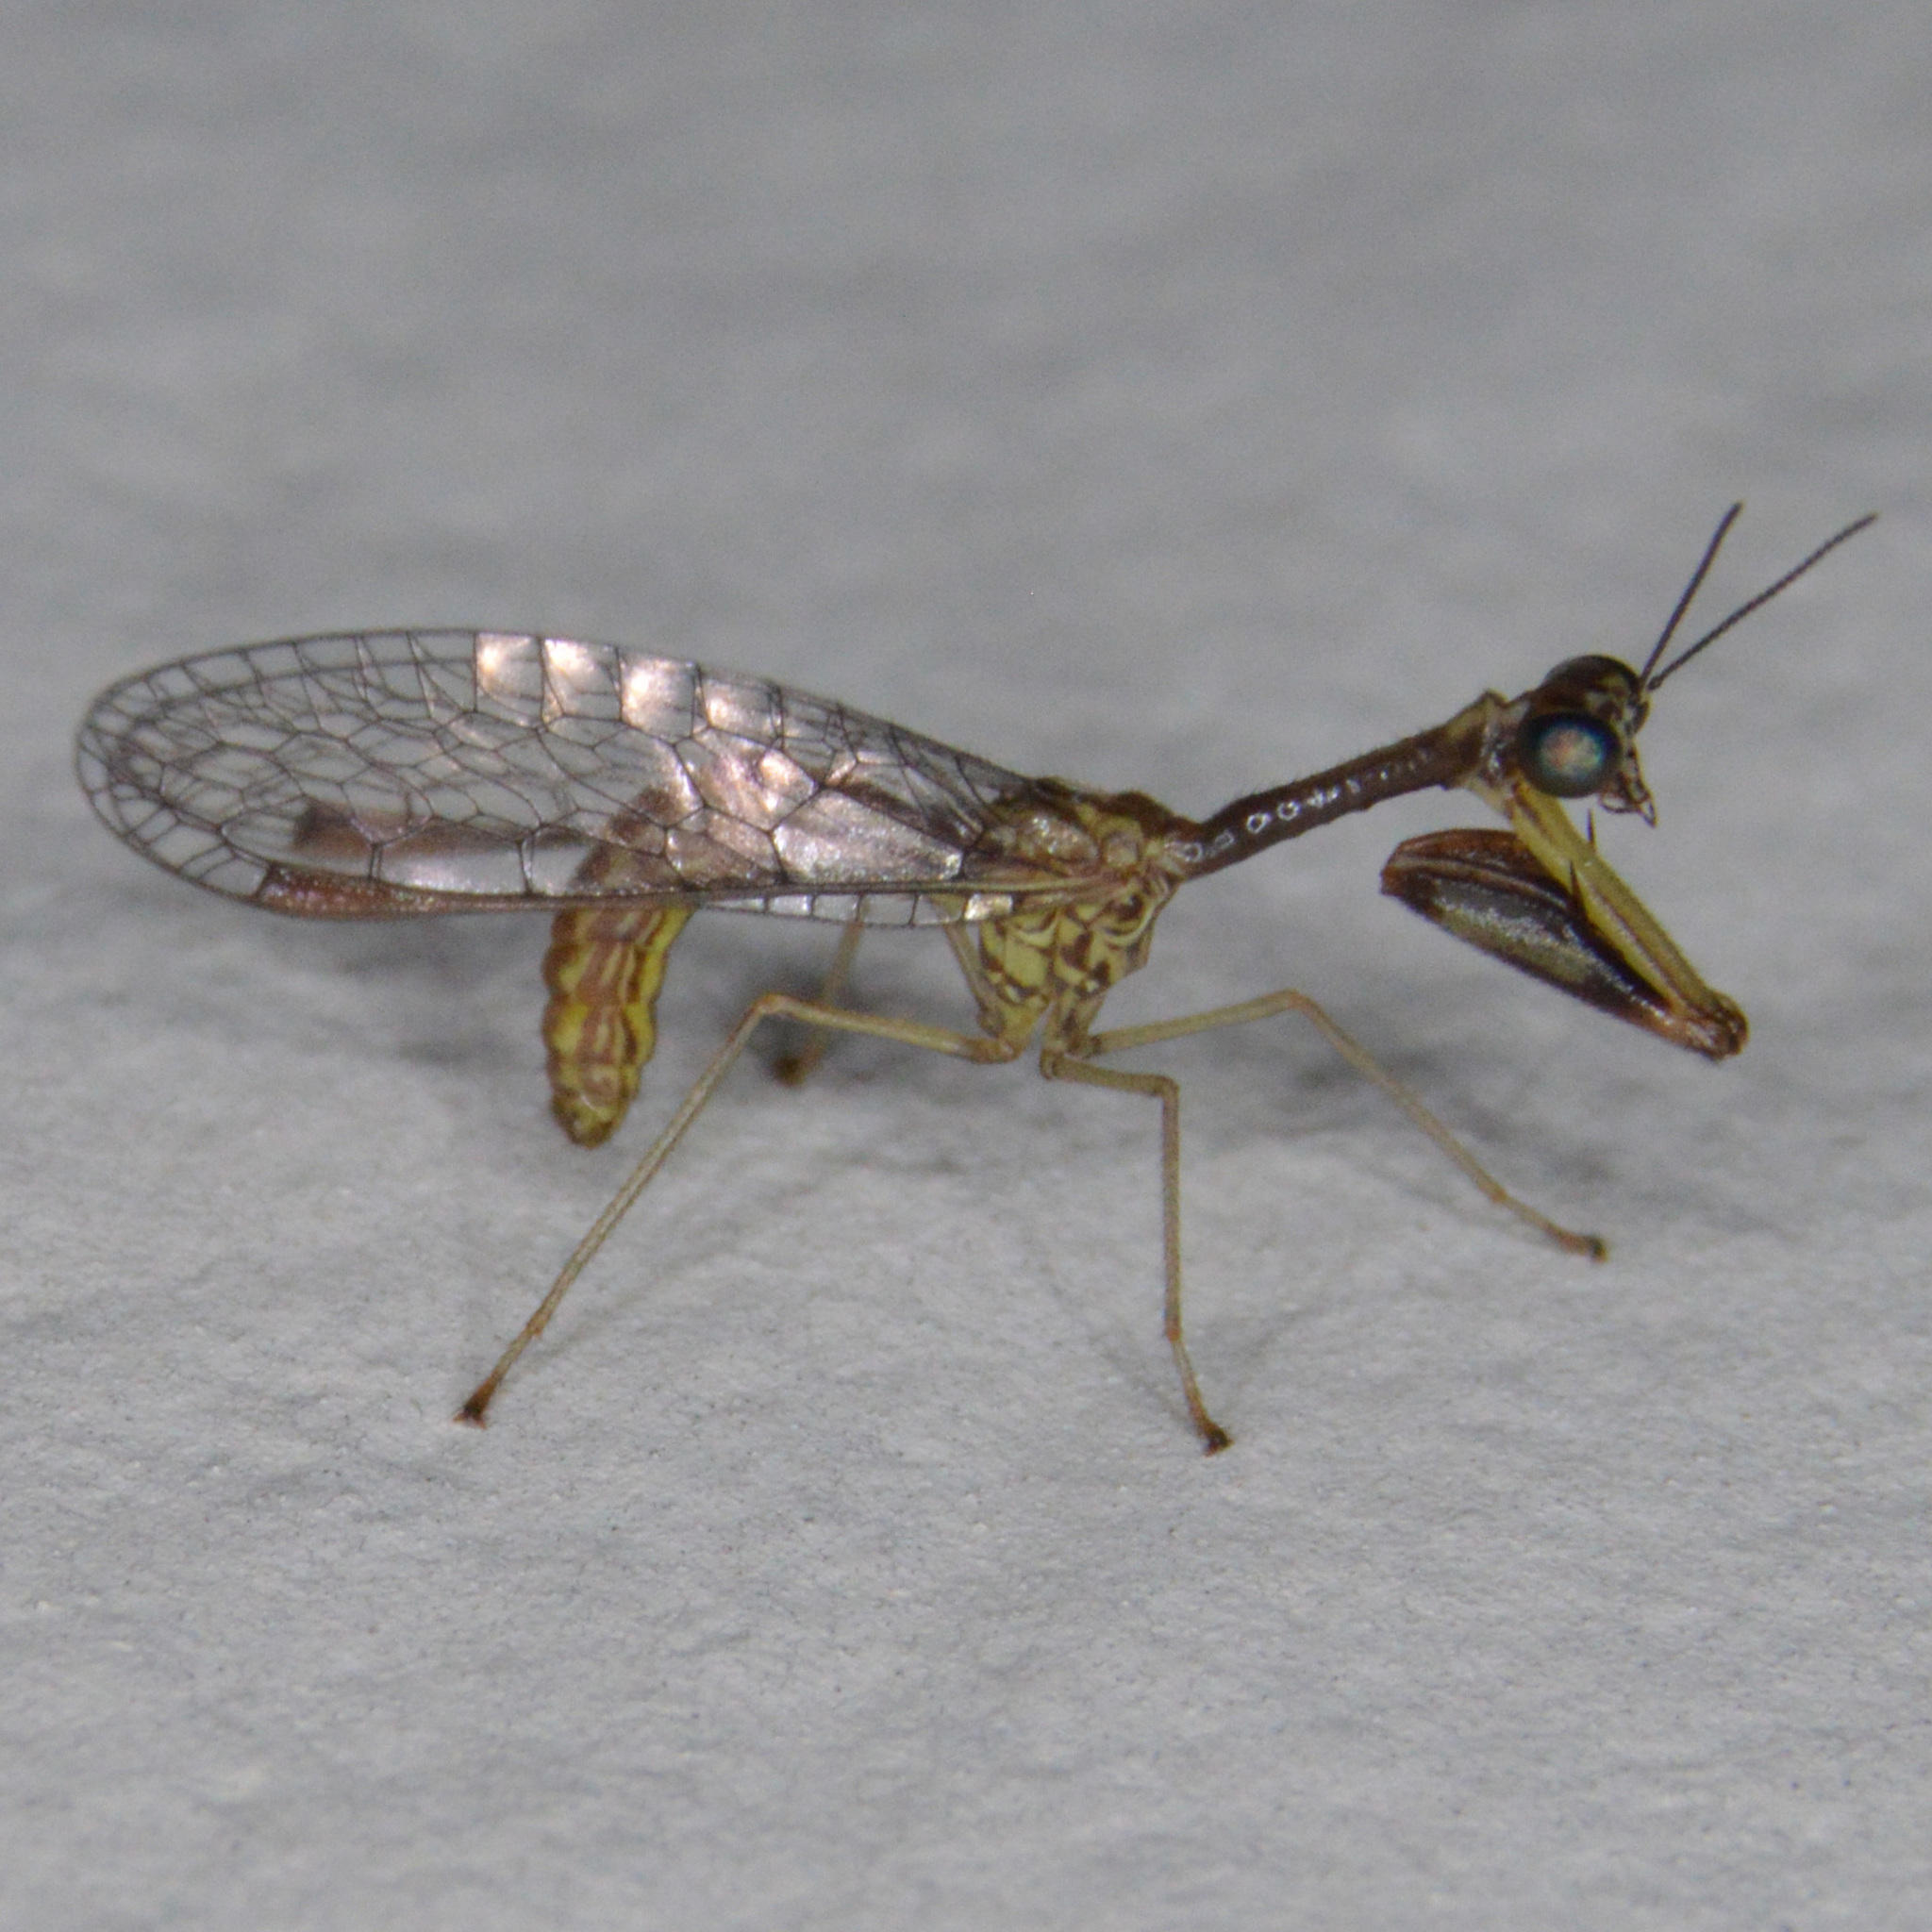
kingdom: Animalia
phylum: Arthropoda
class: Insecta
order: Neuroptera
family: Mantispidae
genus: Leptomantispa
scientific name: Leptomantispa pulchella
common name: Stevens's mantidfly
